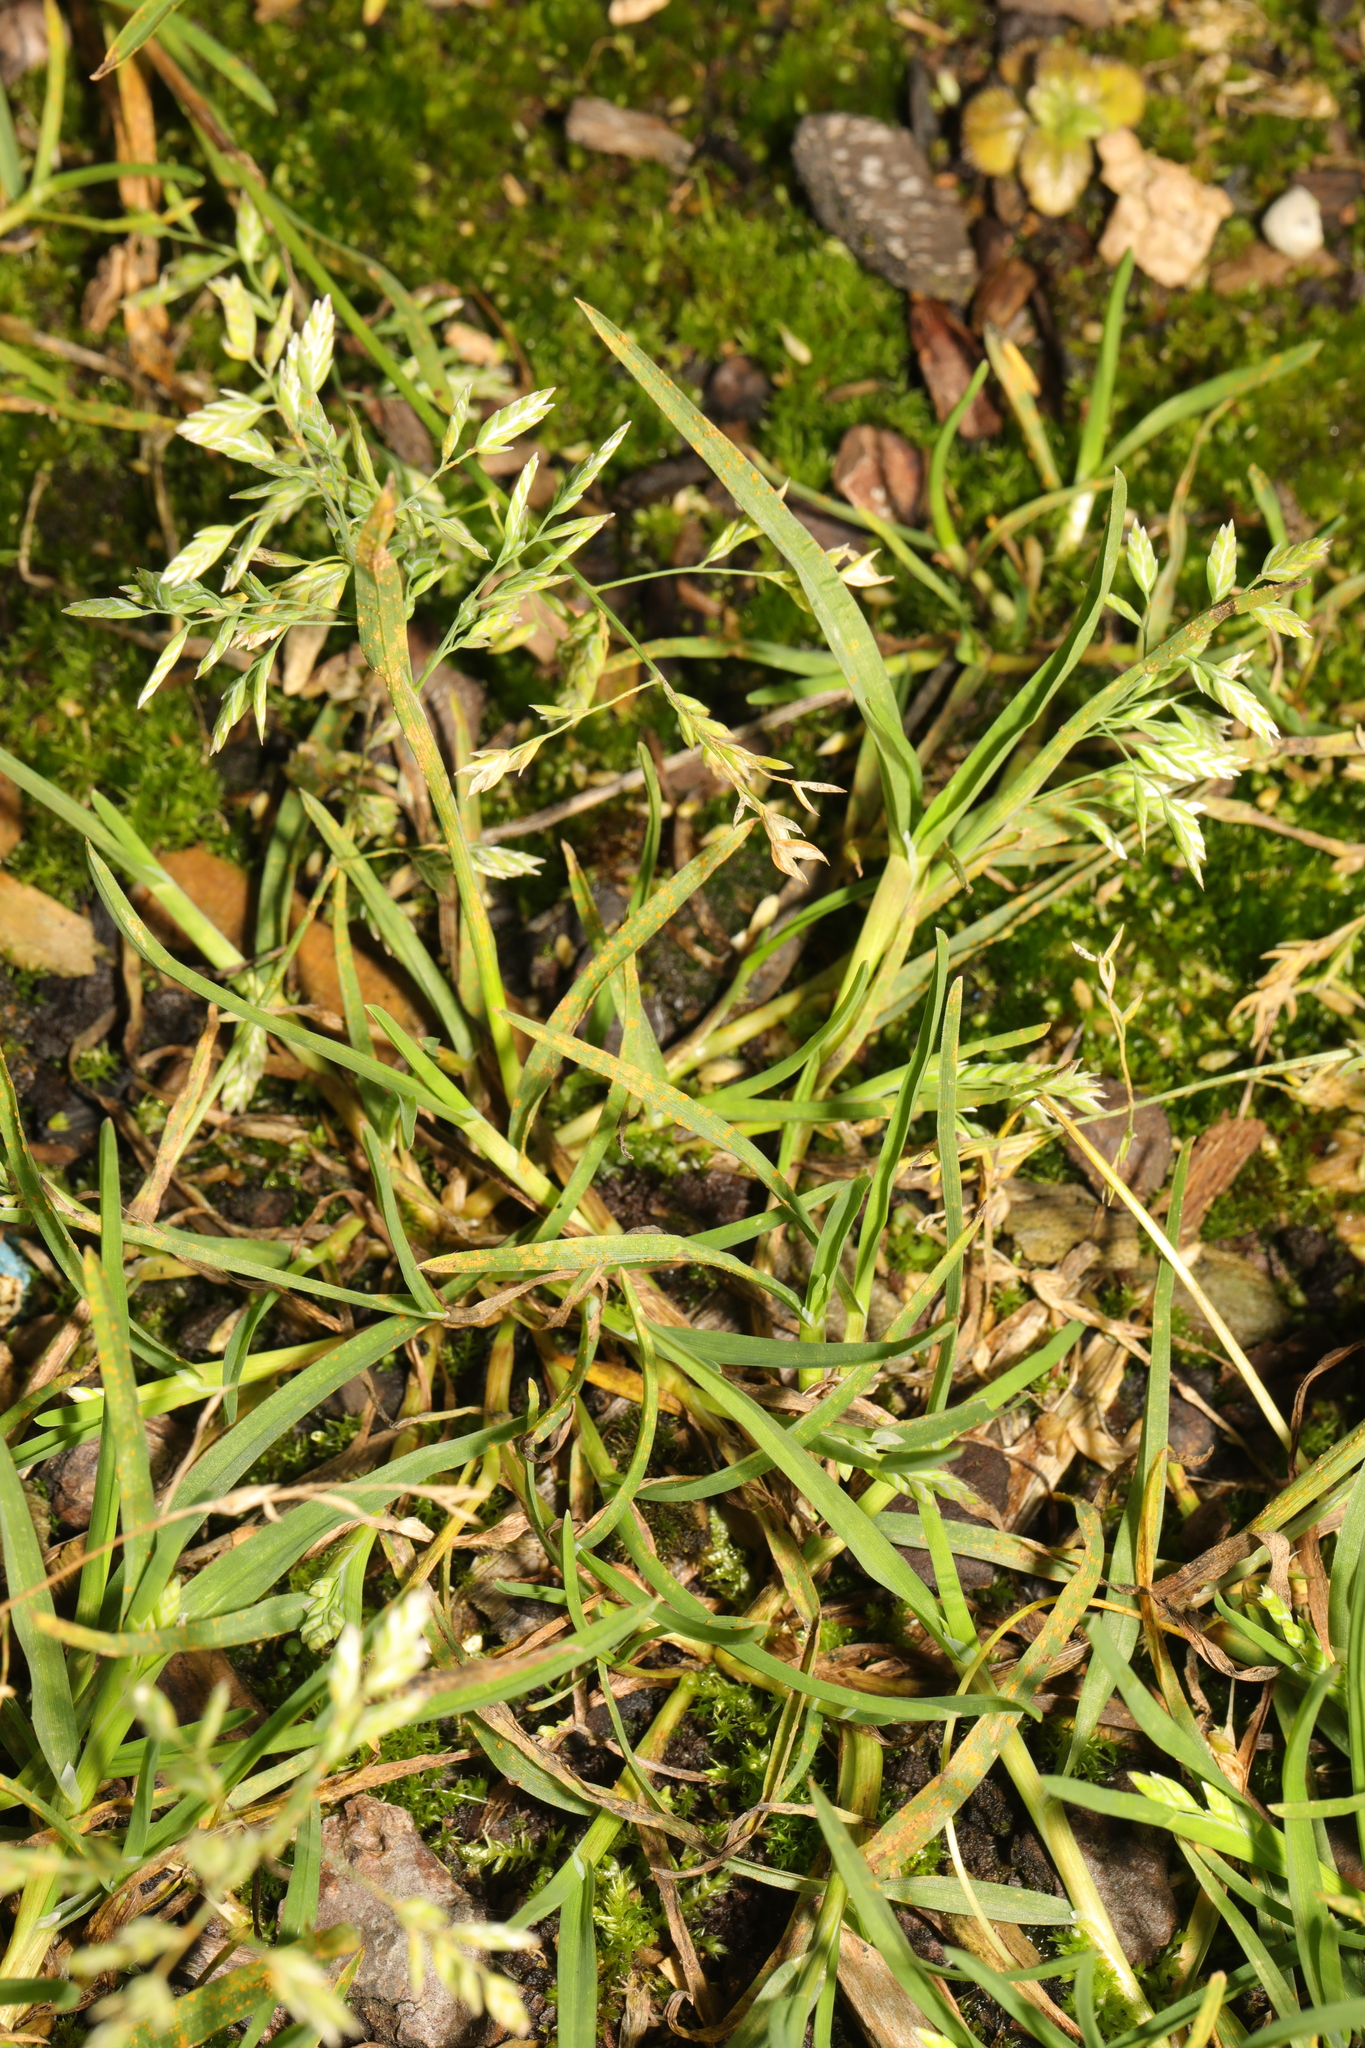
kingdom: Plantae
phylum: Tracheophyta
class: Liliopsida
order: Poales
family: Poaceae
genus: Poa
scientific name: Poa annua
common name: Annual bluegrass
